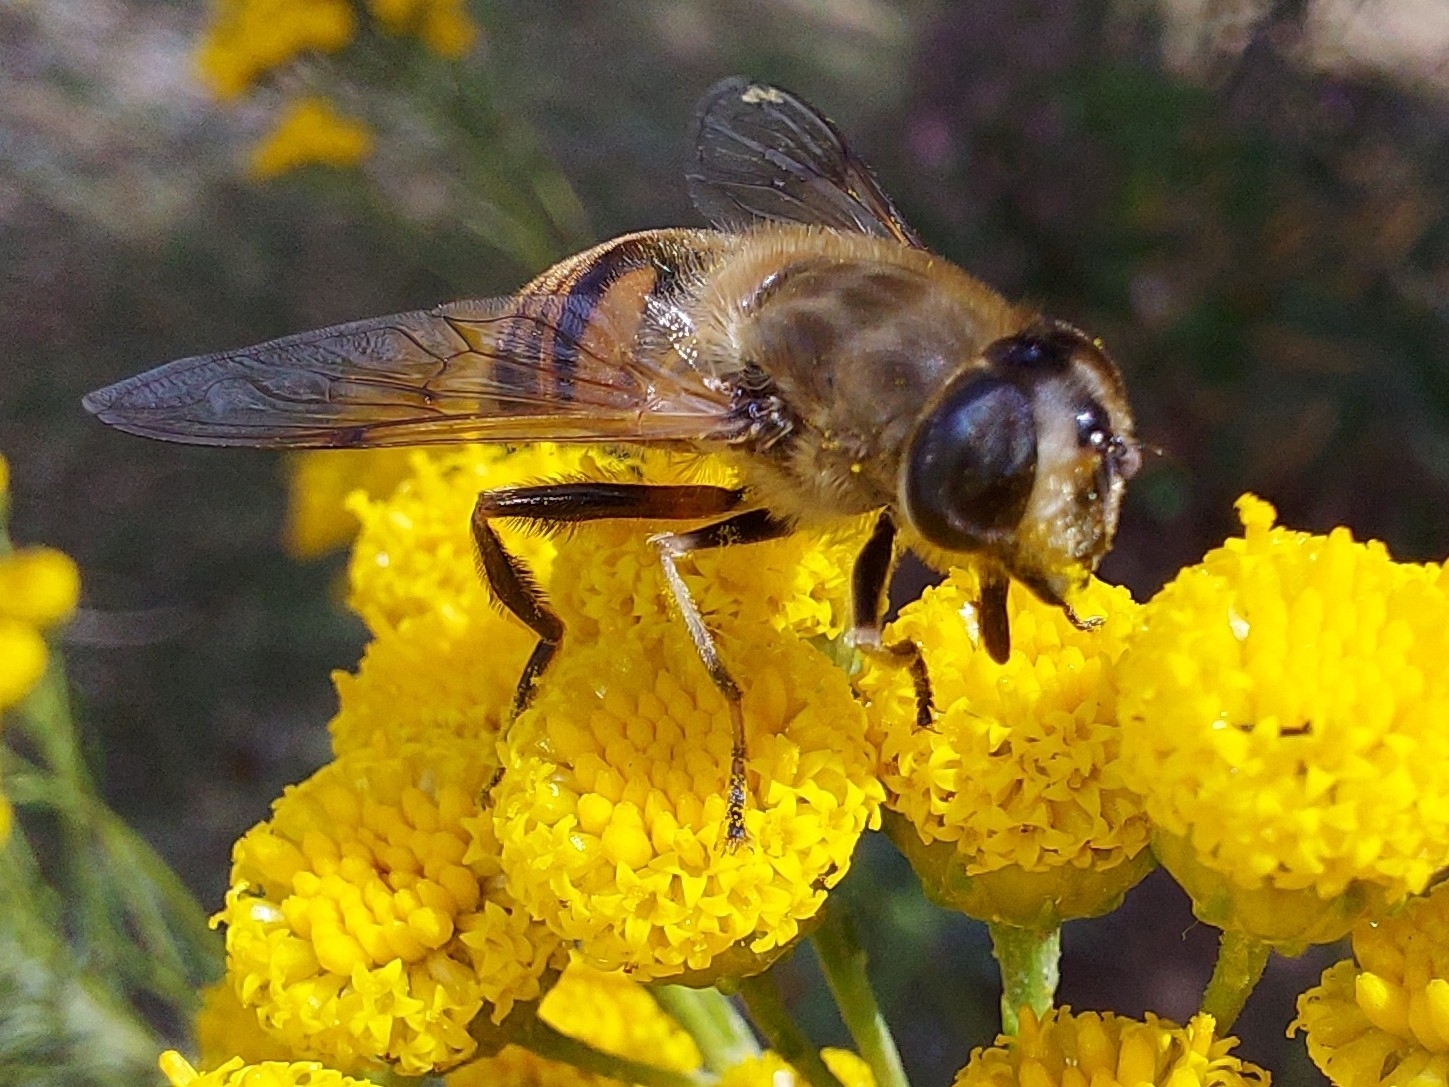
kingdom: Animalia
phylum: Arthropoda
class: Insecta
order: Diptera
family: Syrphidae
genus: Eristalis
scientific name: Eristalis tenax
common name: Drone fly
